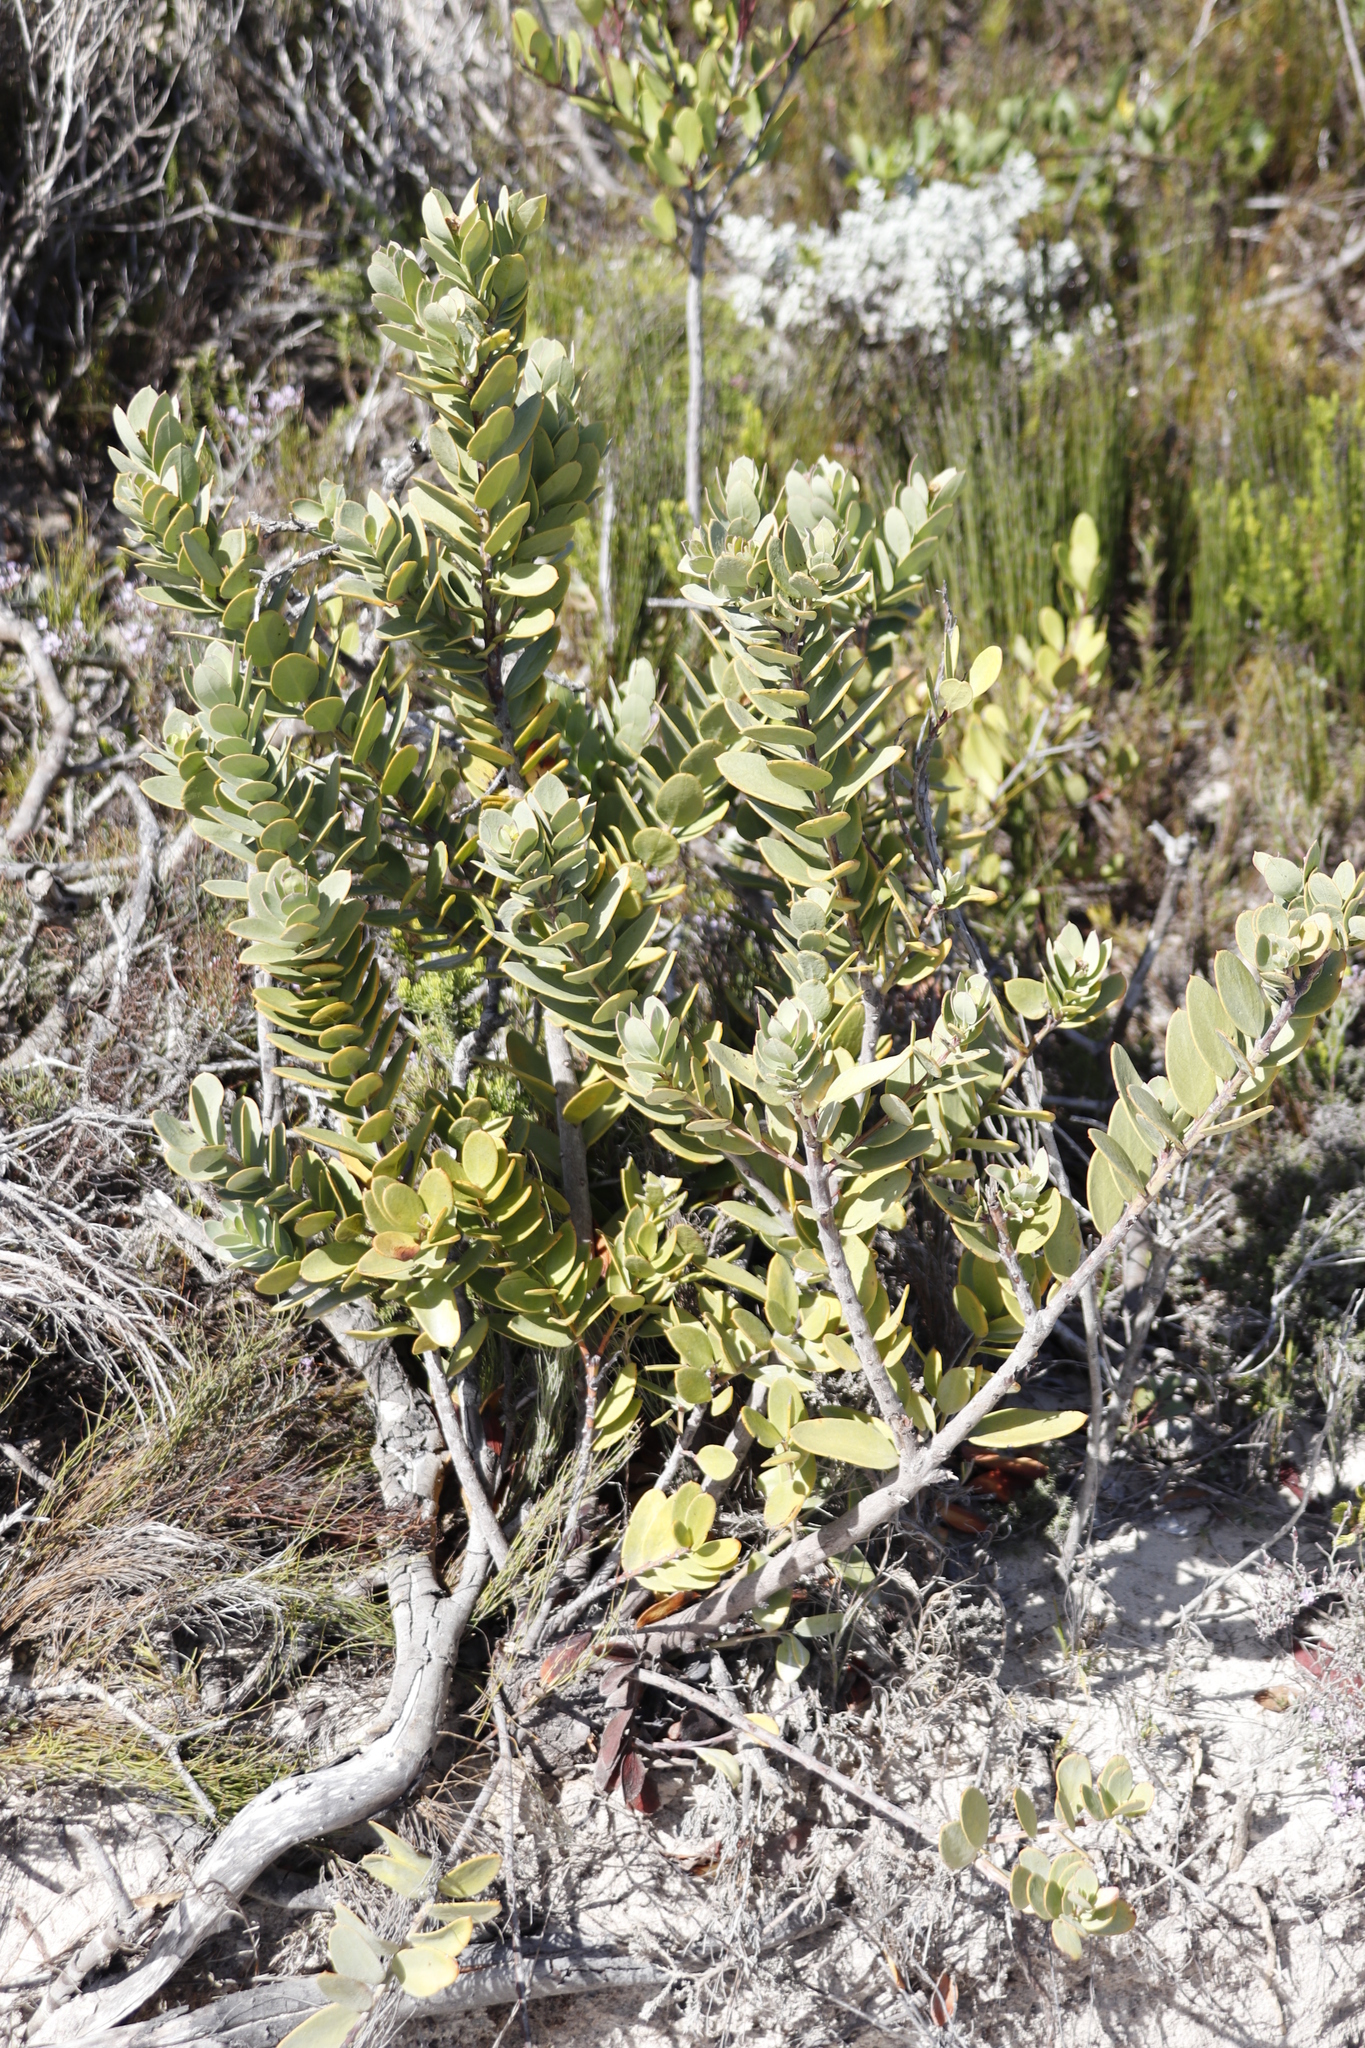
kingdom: Plantae
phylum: Tracheophyta
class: Magnoliopsida
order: Santalales
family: Santalaceae
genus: Osyris
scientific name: Osyris compressa
